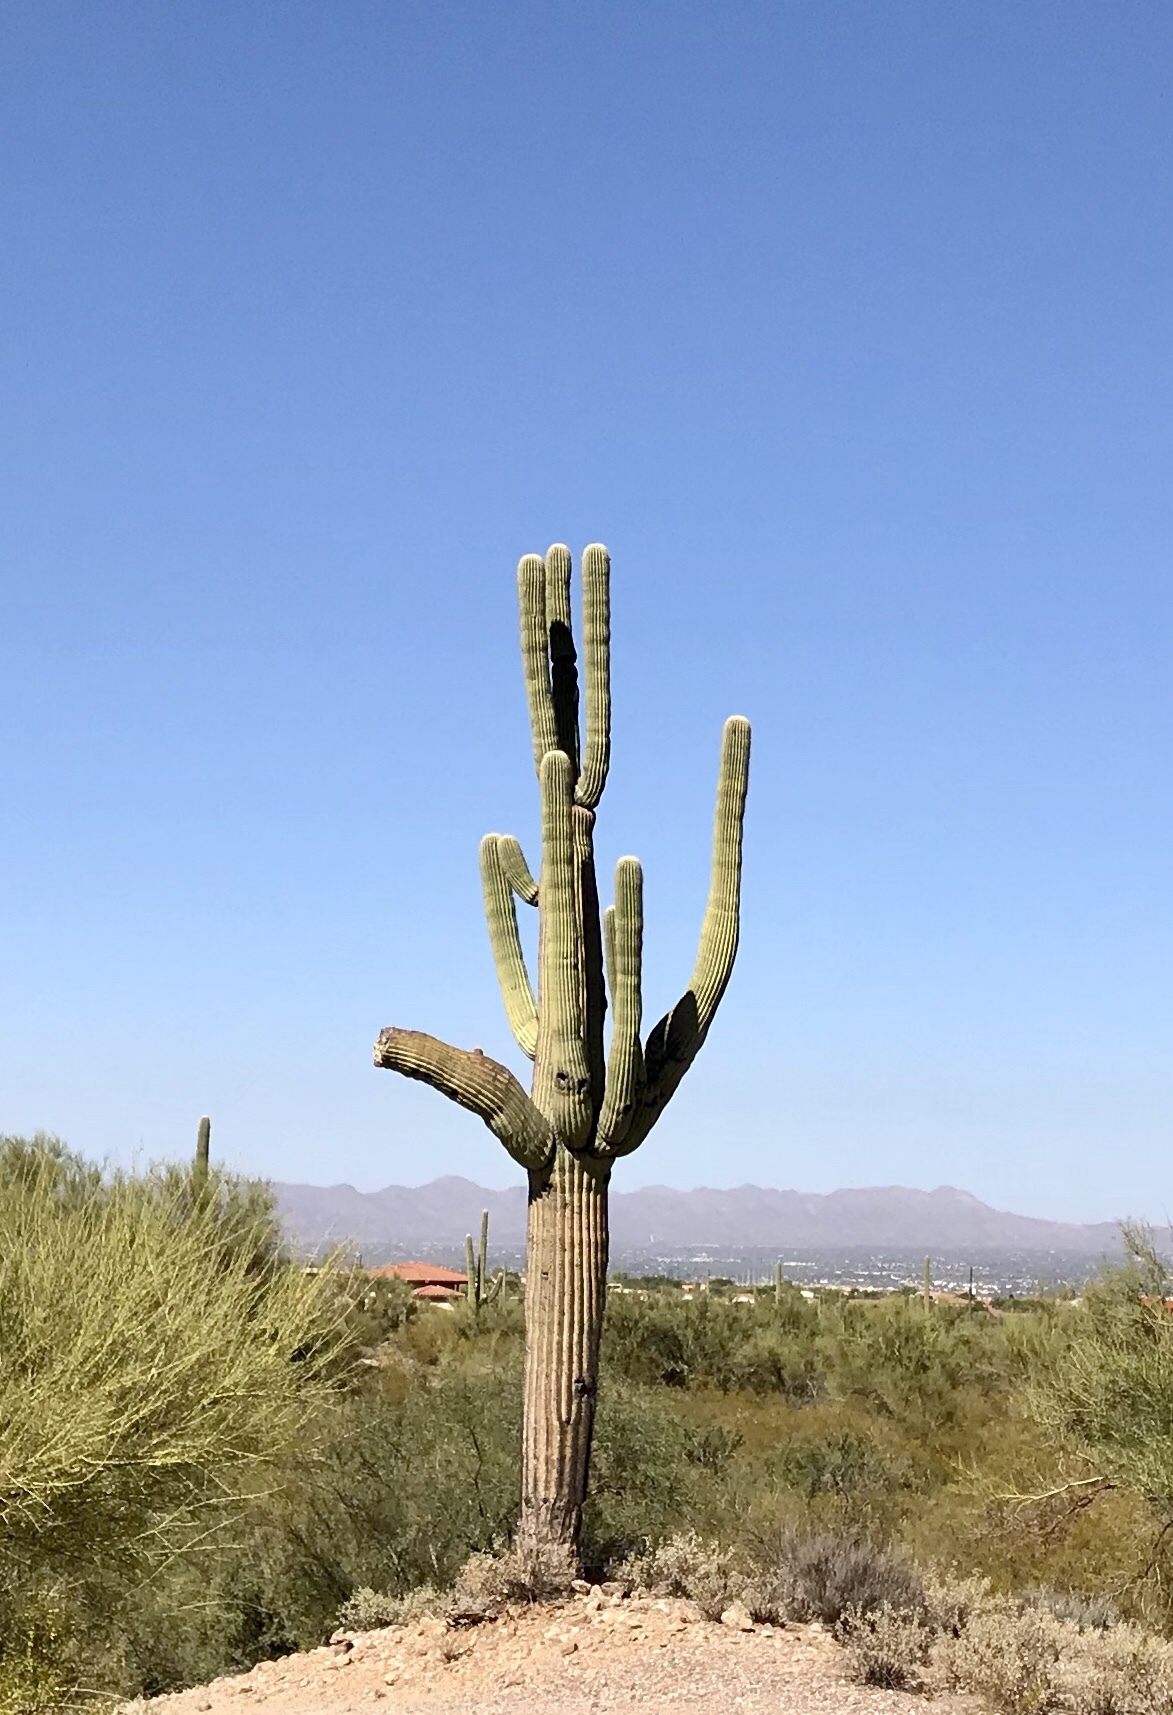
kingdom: Plantae
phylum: Tracheophyta
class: Magnoliopsida
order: Caryophyllales
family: Cactaceae
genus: Carnegiea
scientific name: Carnegiea gigantea
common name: Saguaro
